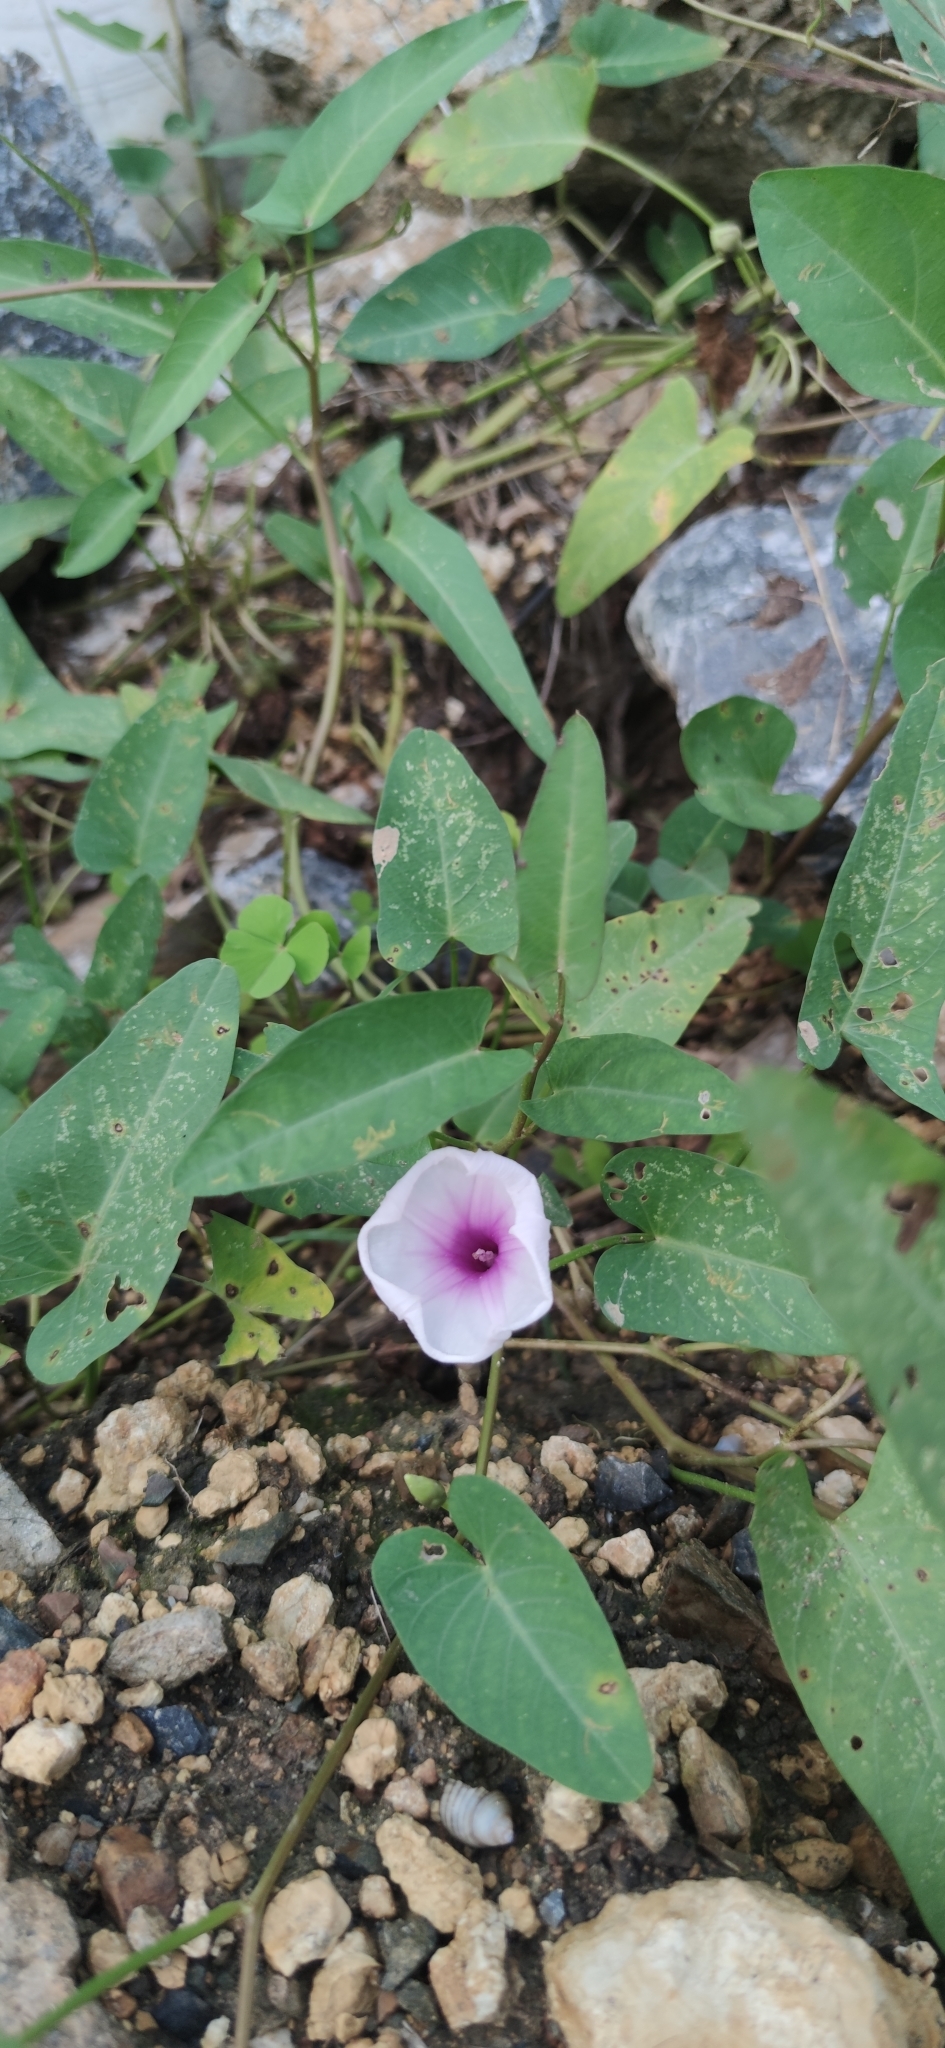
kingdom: Plantae
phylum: Tracheophyta
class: Magnoliopsida
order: Solanales
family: Convolvulaceae
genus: Ipomoea
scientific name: Ipomoea aquatica
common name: Swamp morning-glory
